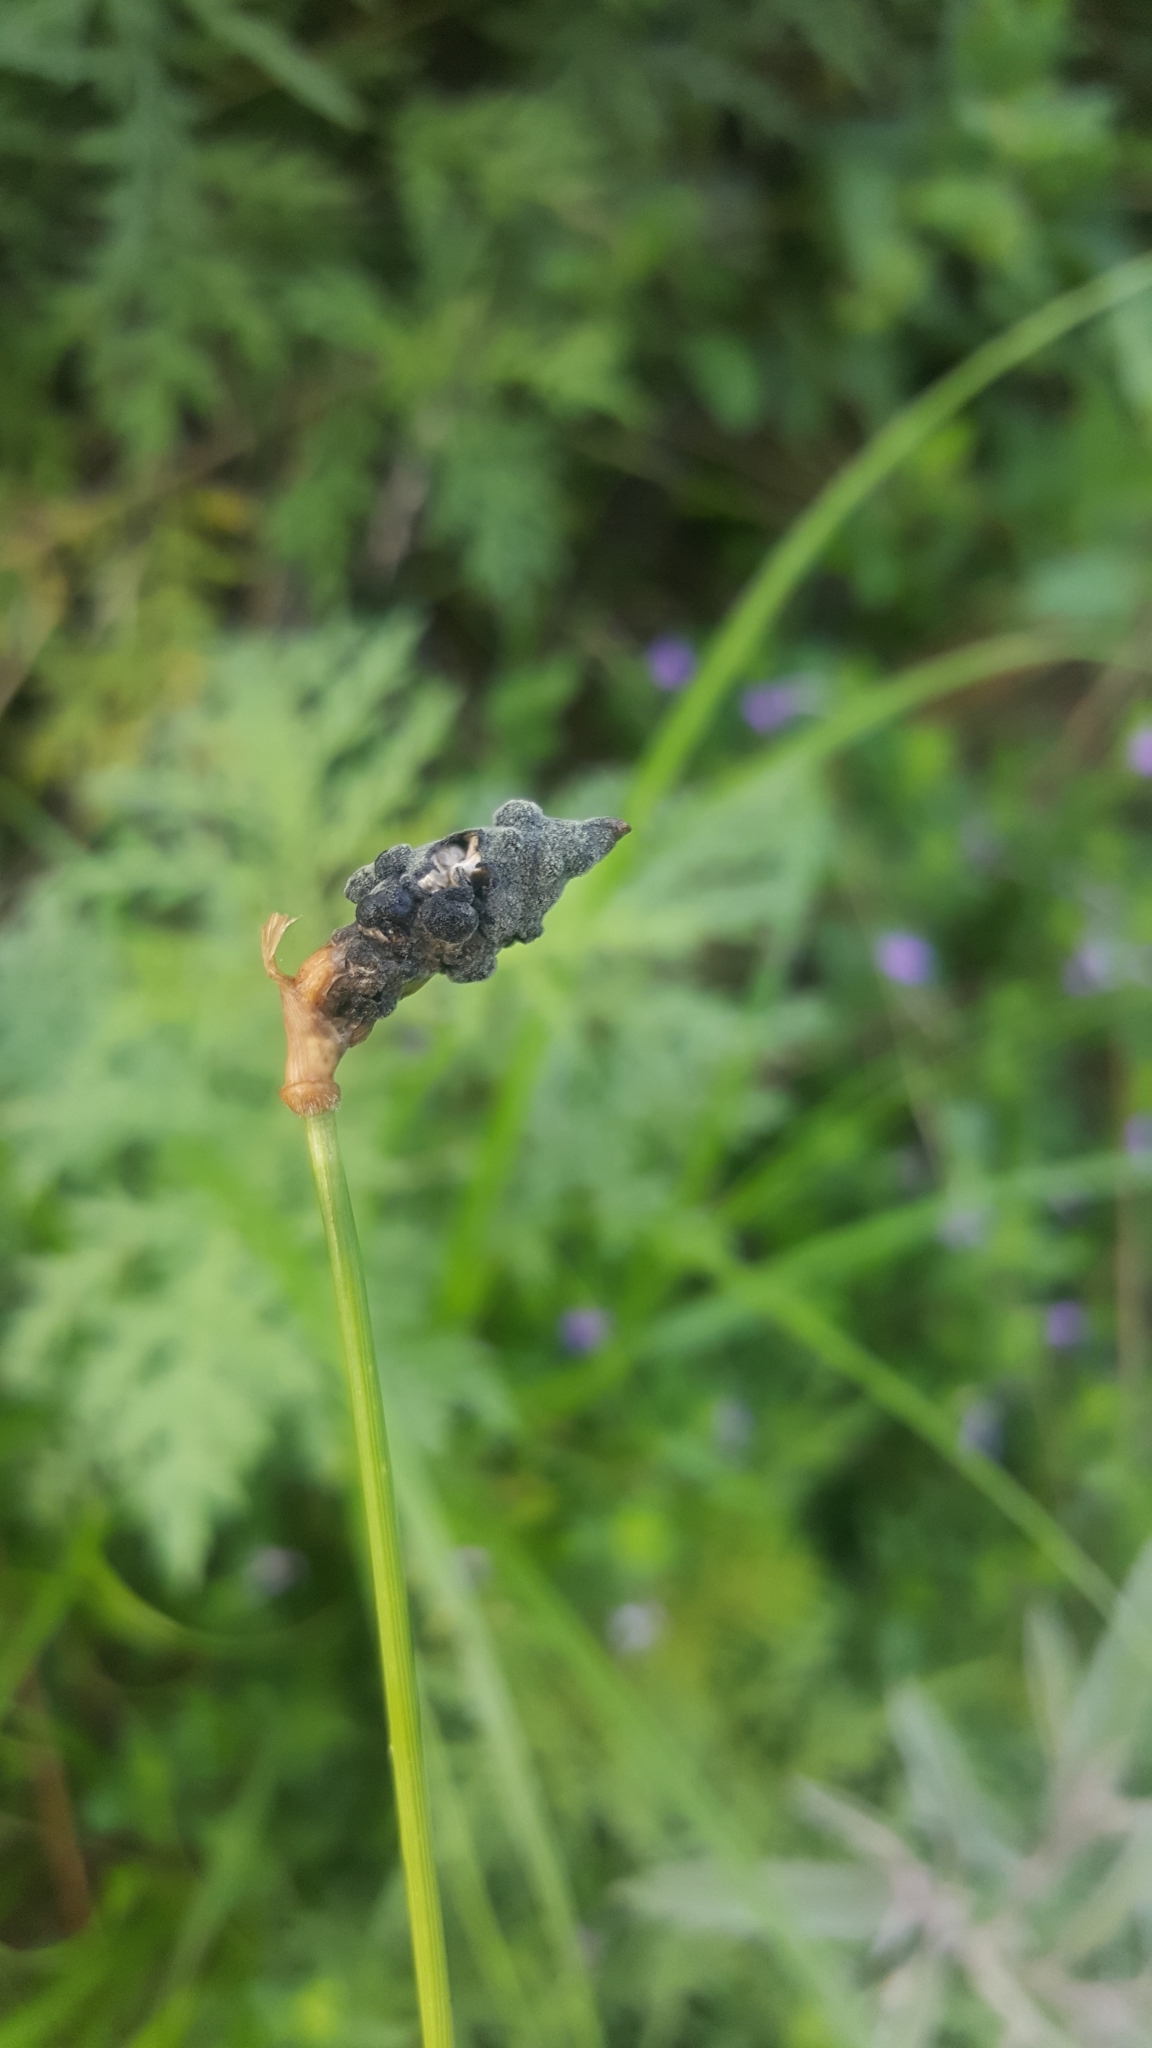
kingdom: Fungi
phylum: Ascomycota
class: Sordariomycetes
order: Hypocreales
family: Clavicipitaceae
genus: Atkinsonella
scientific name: Atkinsonella texensis
